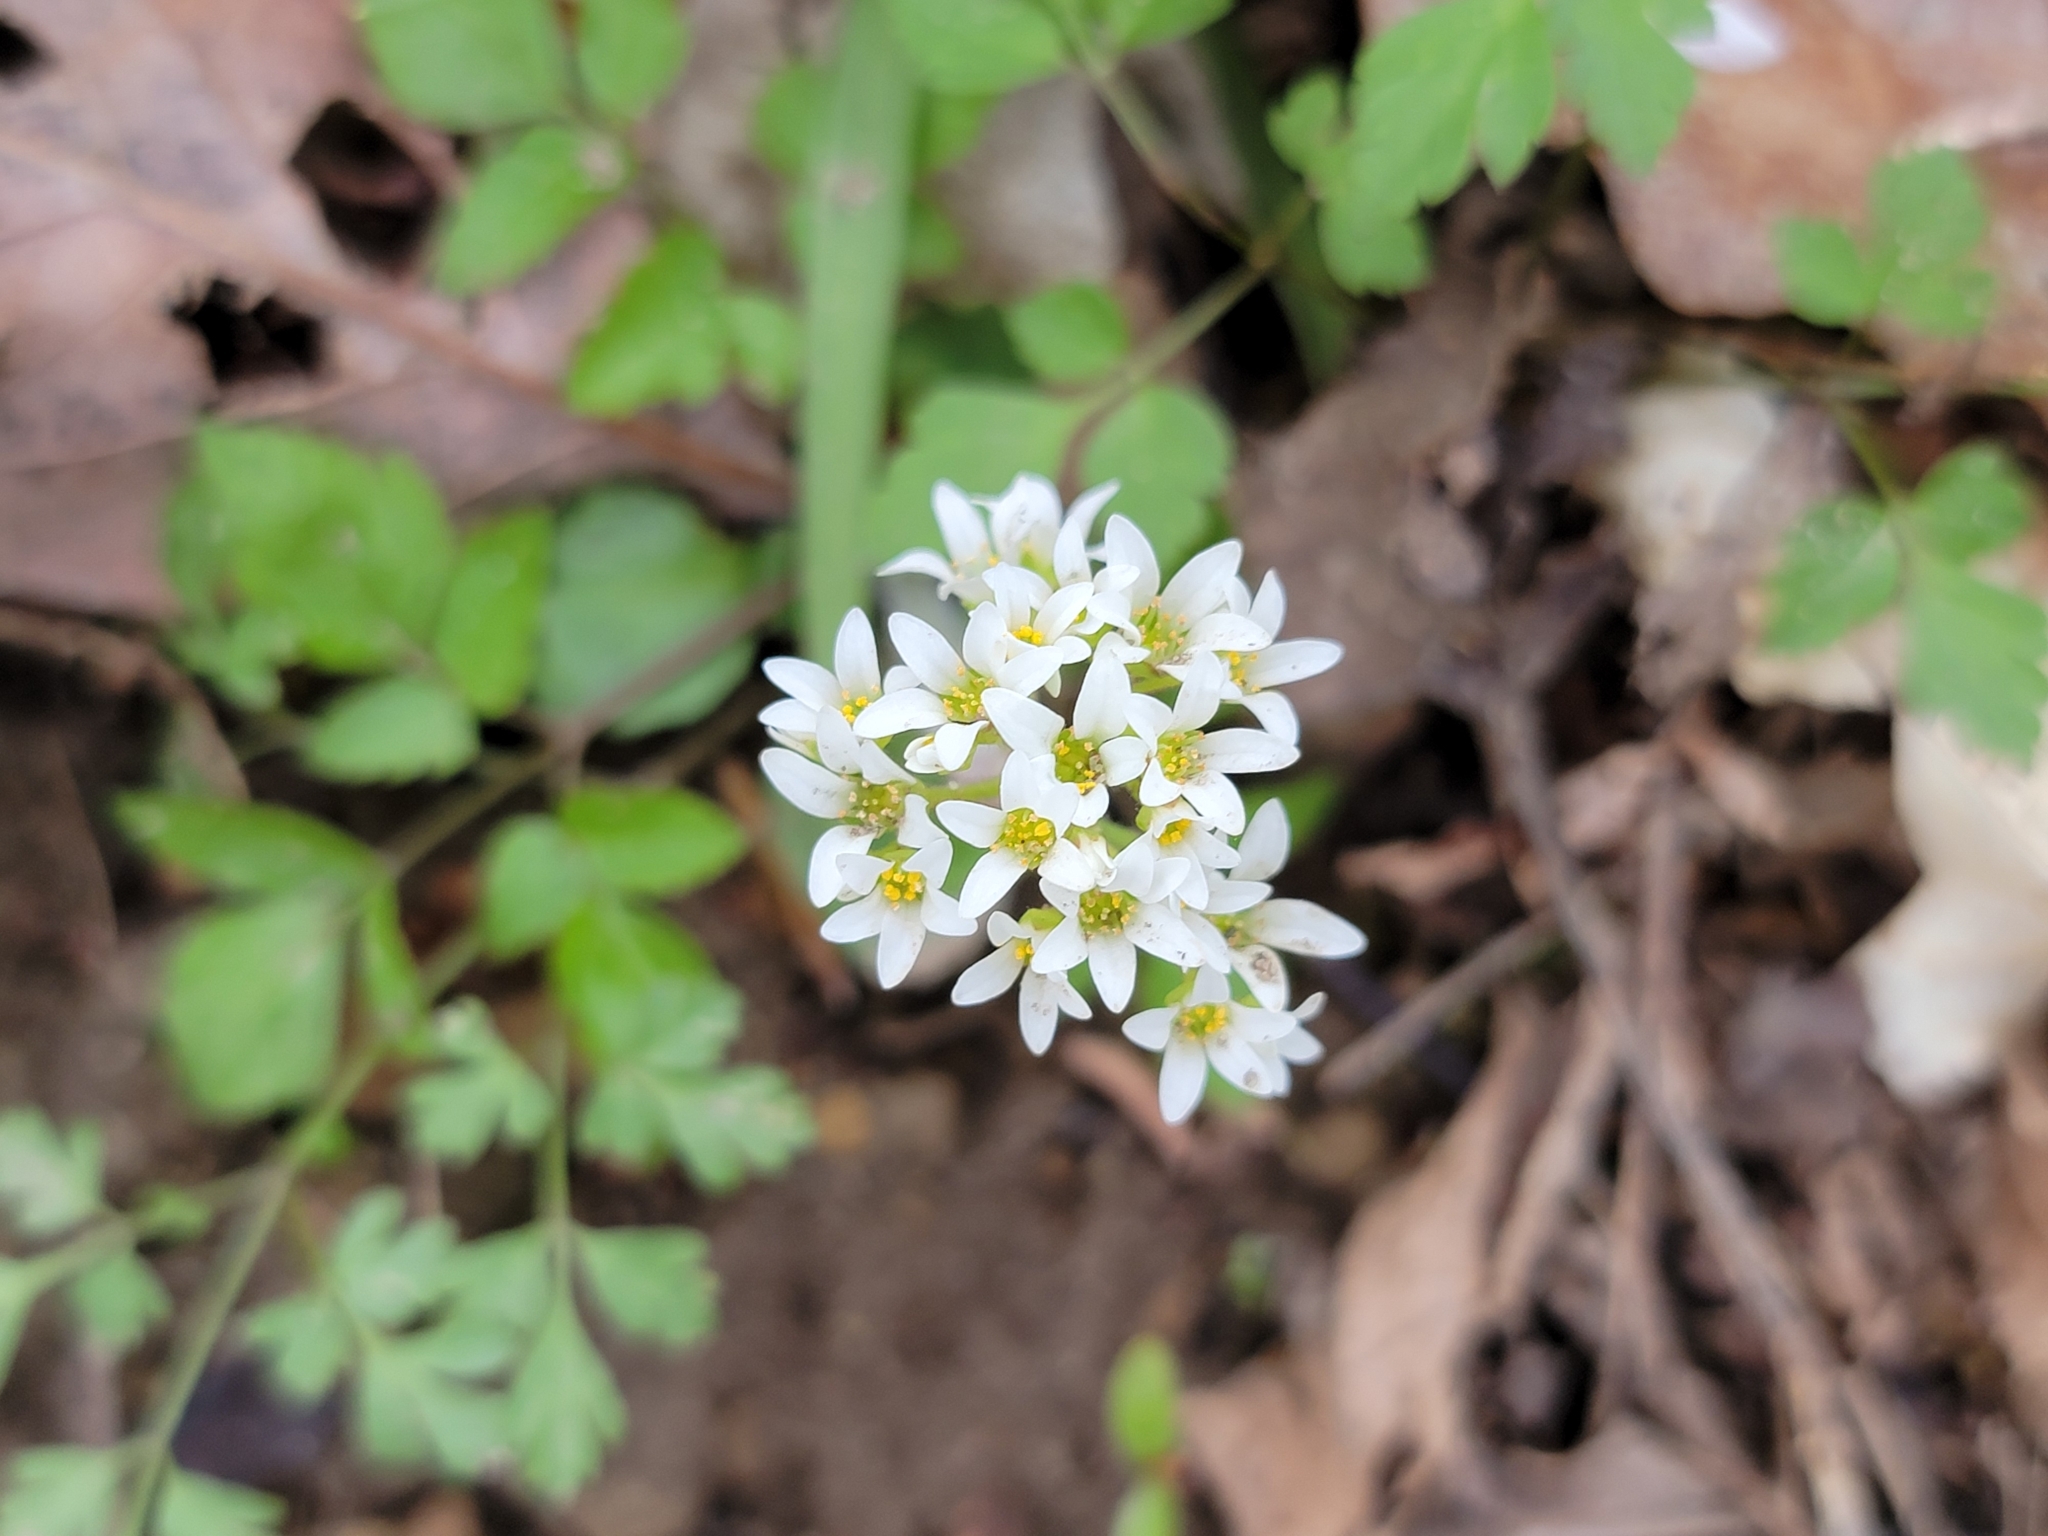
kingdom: Plantae
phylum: Tracheophyta
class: Magnoliopsida
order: Saxifragales
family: Saxifragaceae
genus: Micranthes
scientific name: Micranthes virginiensis
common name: Early saxifrage
